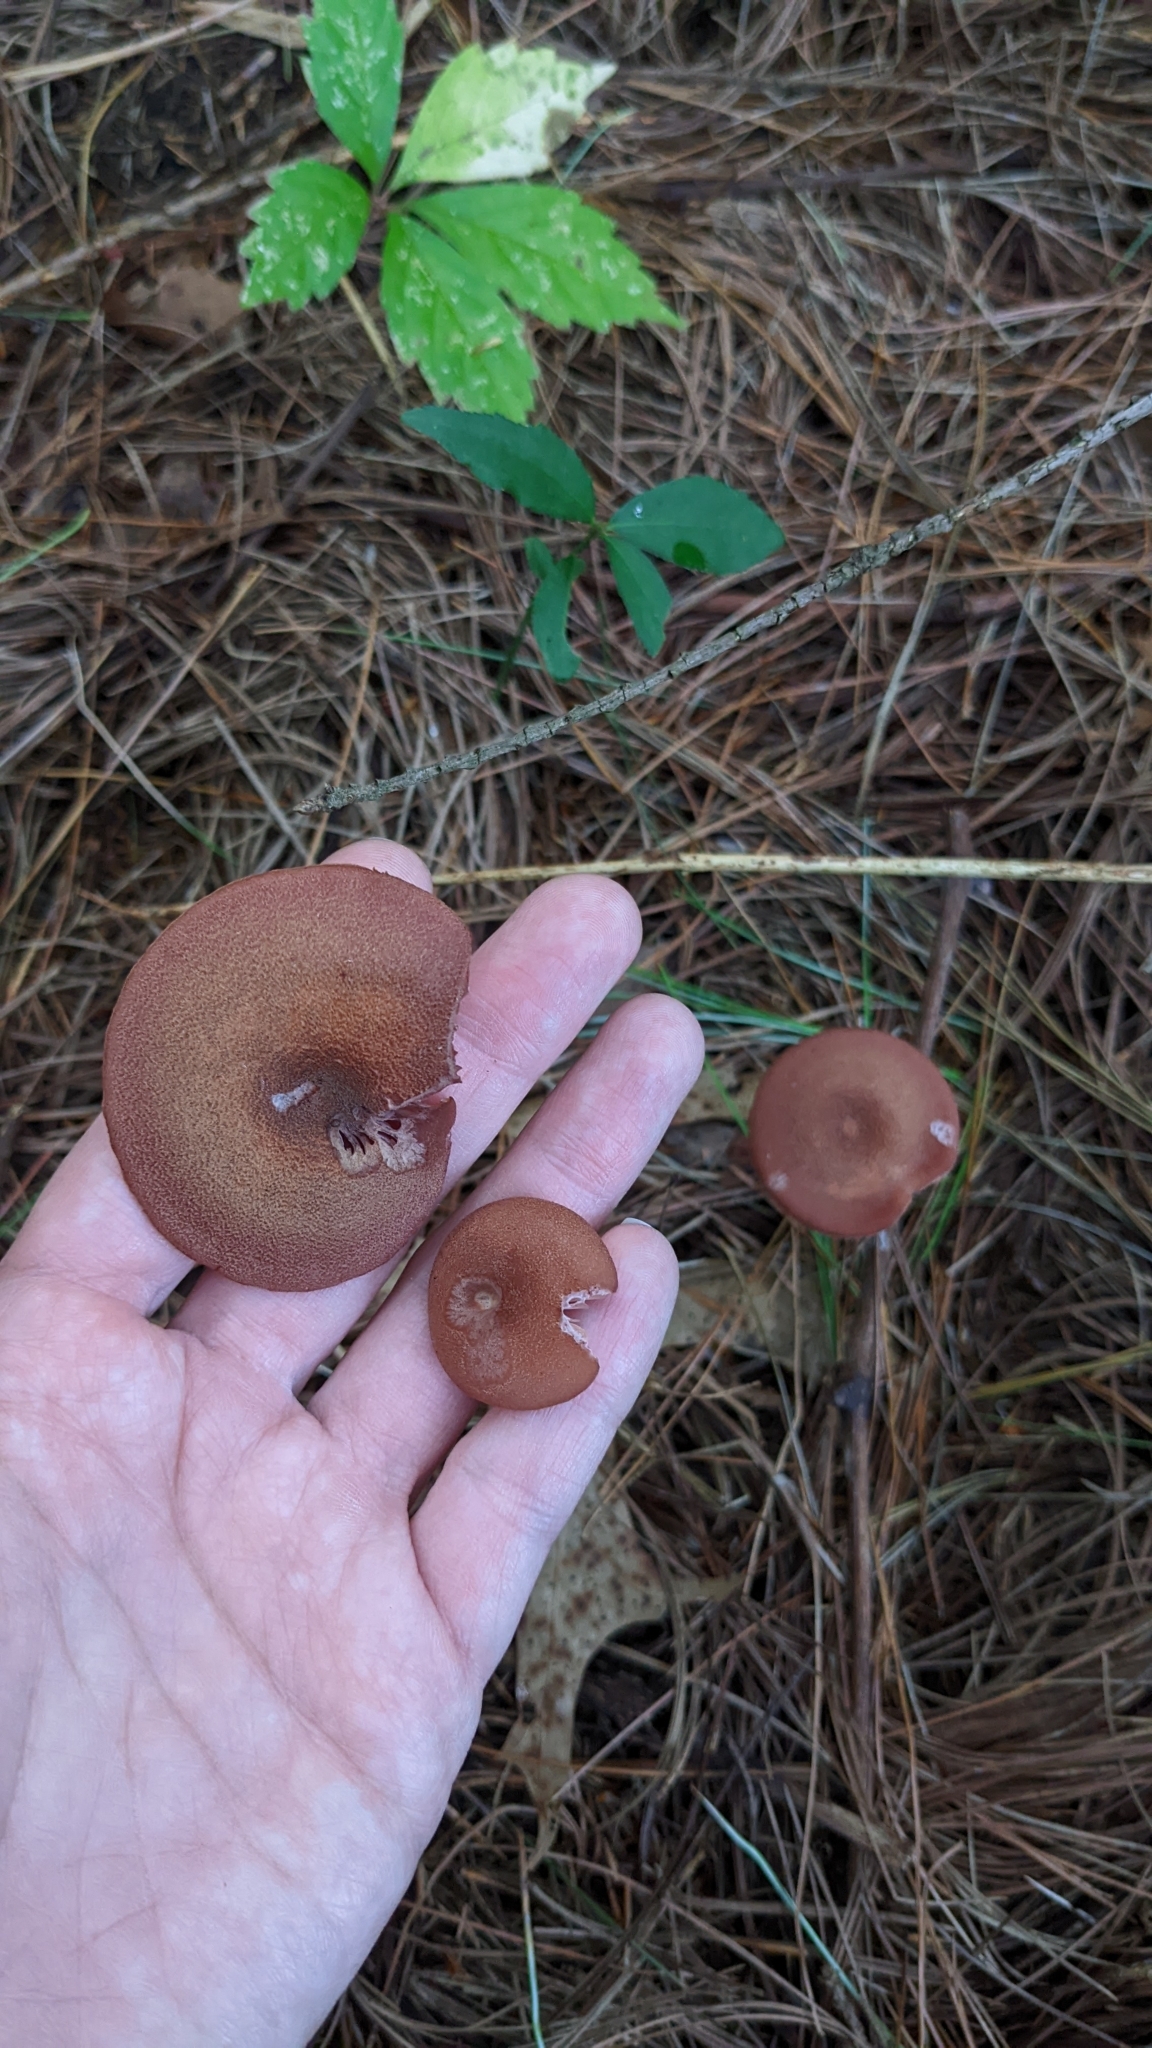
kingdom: Fungi
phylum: Basidiomycota
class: Agaricomycetes
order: Agaricales
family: Hydnangiaceae
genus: Laccaria
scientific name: Laccaria proxima
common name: Scurfy deceiver
